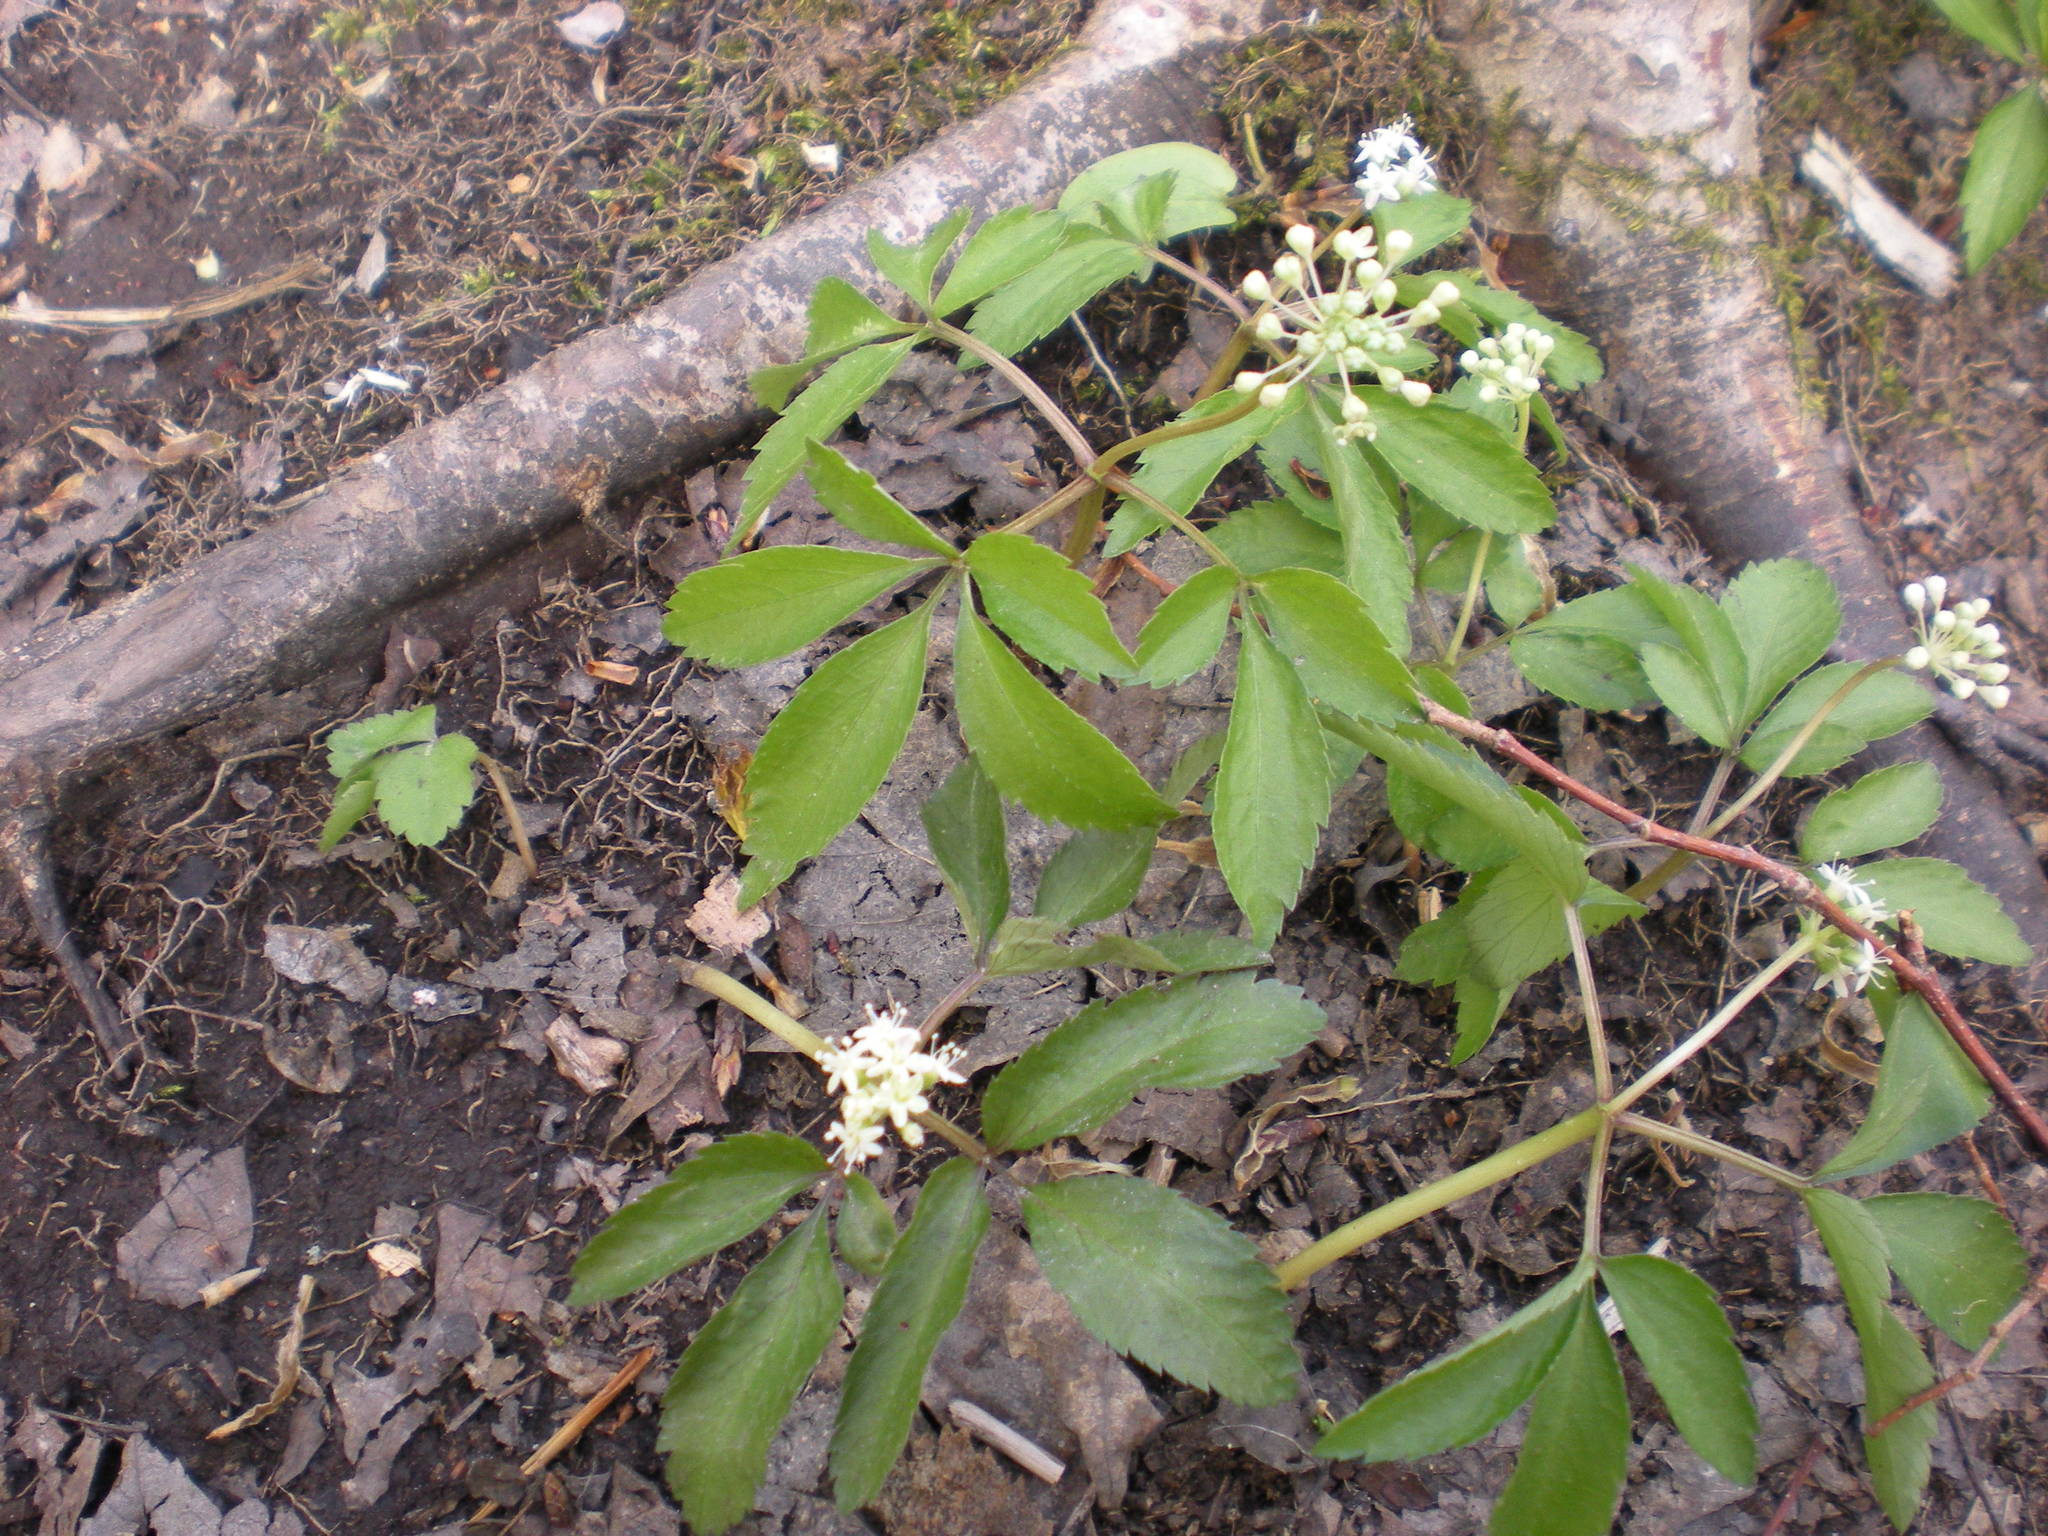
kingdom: Plantae
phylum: Tracheophyta
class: Magnoliopsida
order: Apiales
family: Araliaceae
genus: Panax
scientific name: Panax trifolius
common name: Dwarf ginseng
